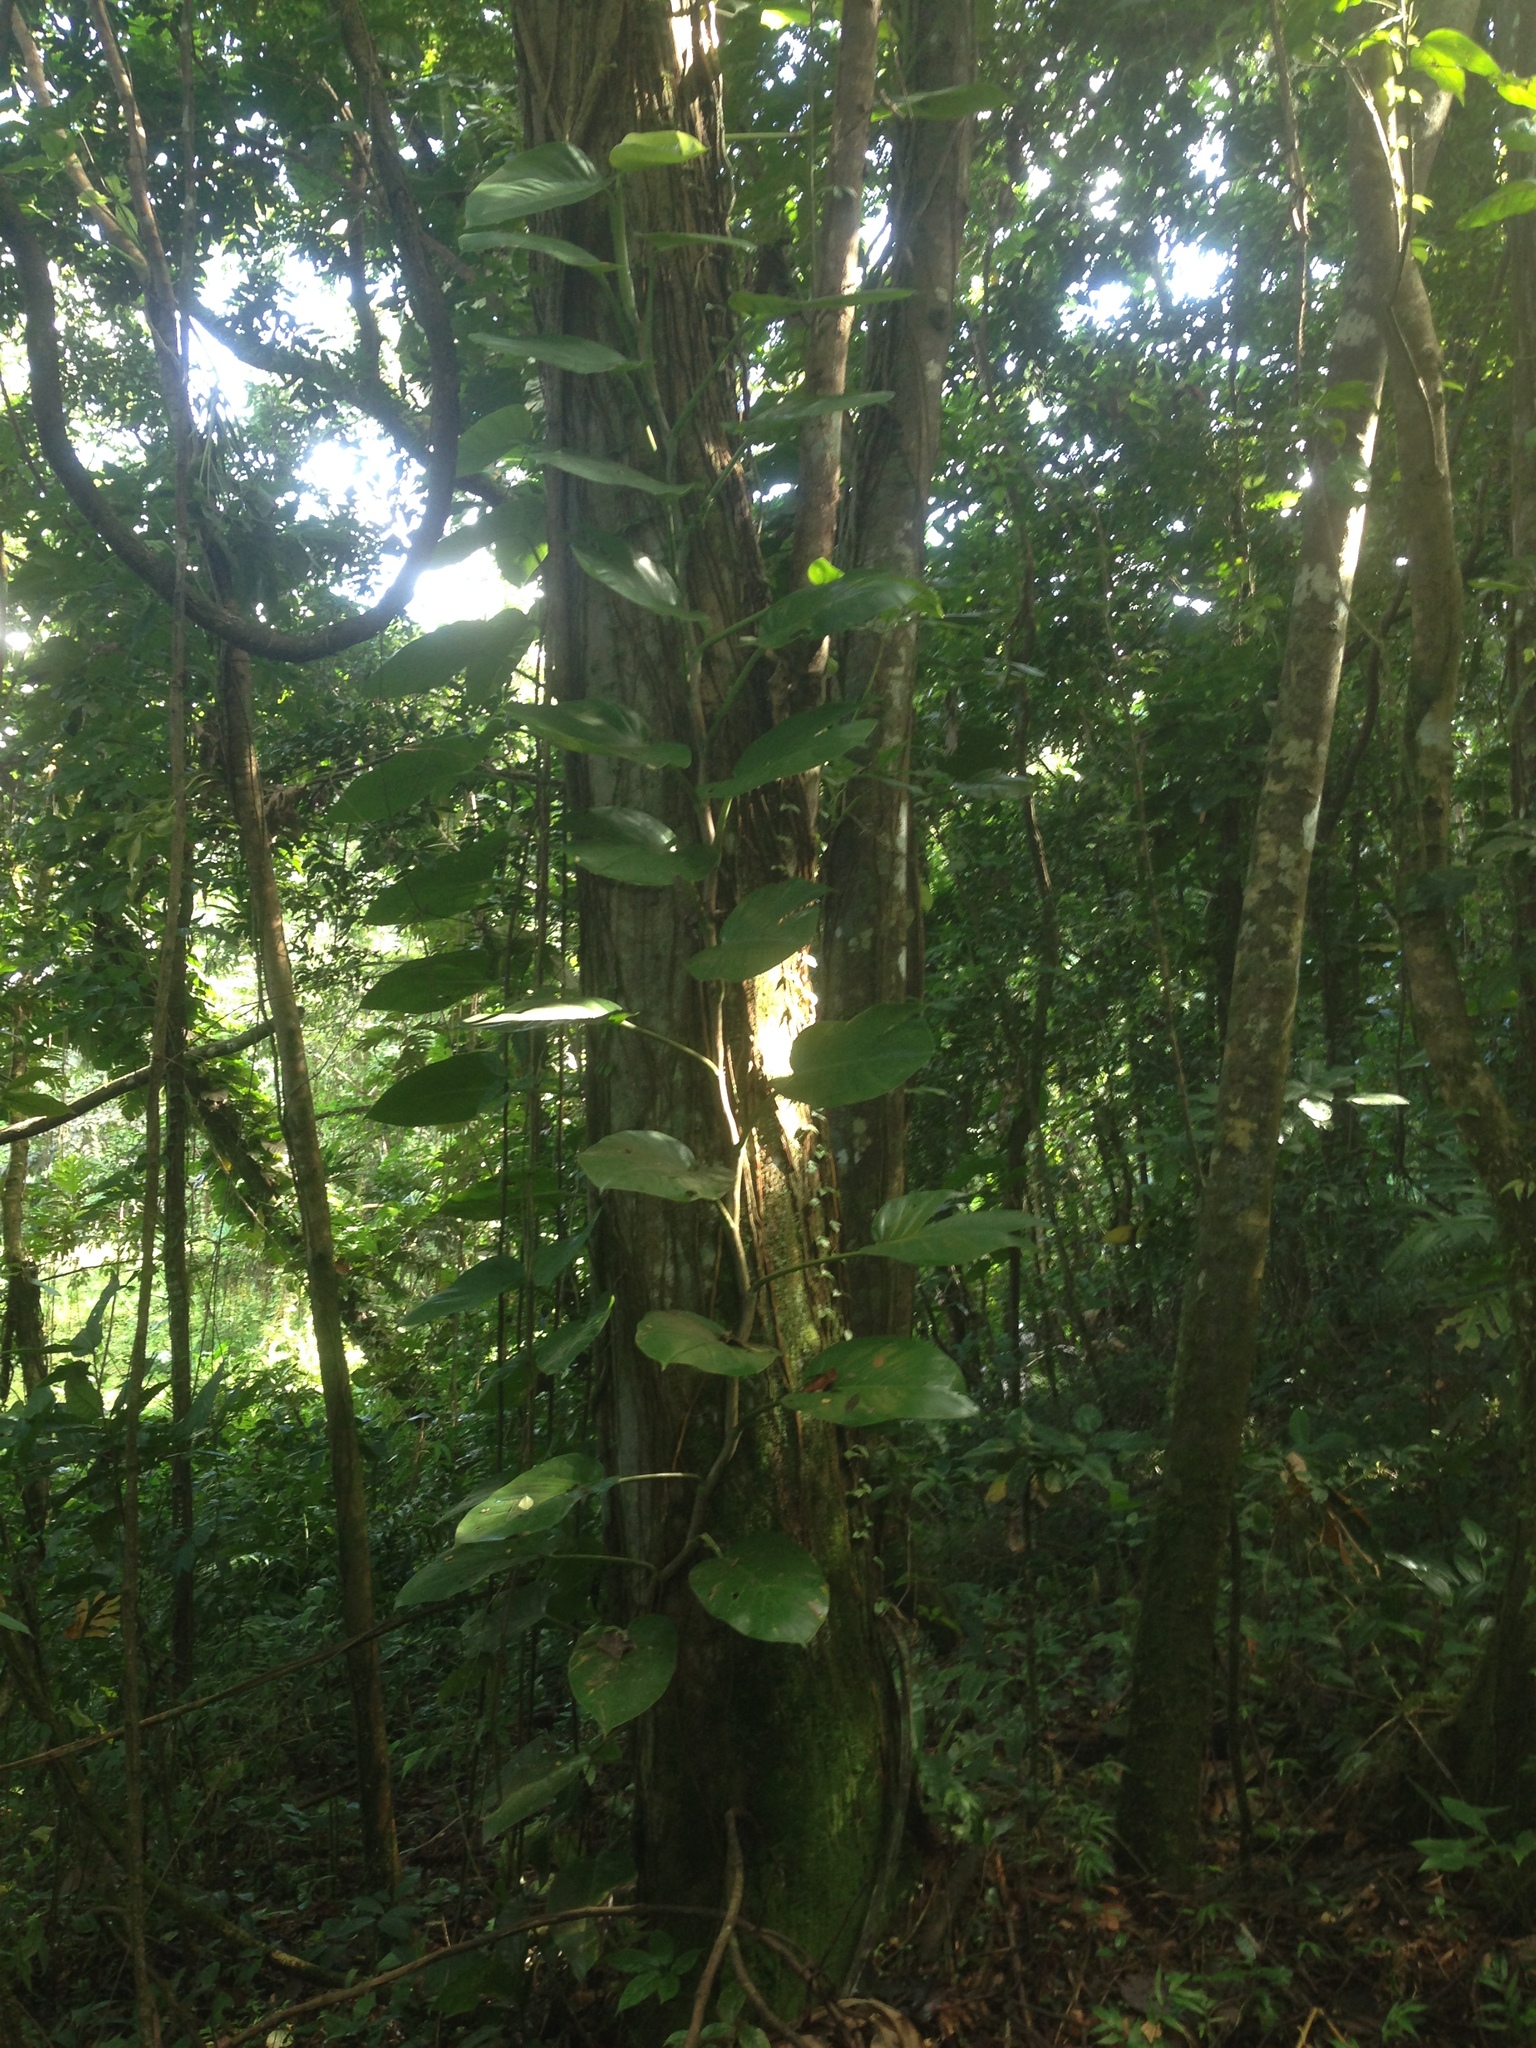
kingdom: Plantae
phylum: Tracheophyta
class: Liliopsida
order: Alismatales
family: Araceae
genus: Epipremnum
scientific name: Epipremnum aureum
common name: Golden hunter's-robe
